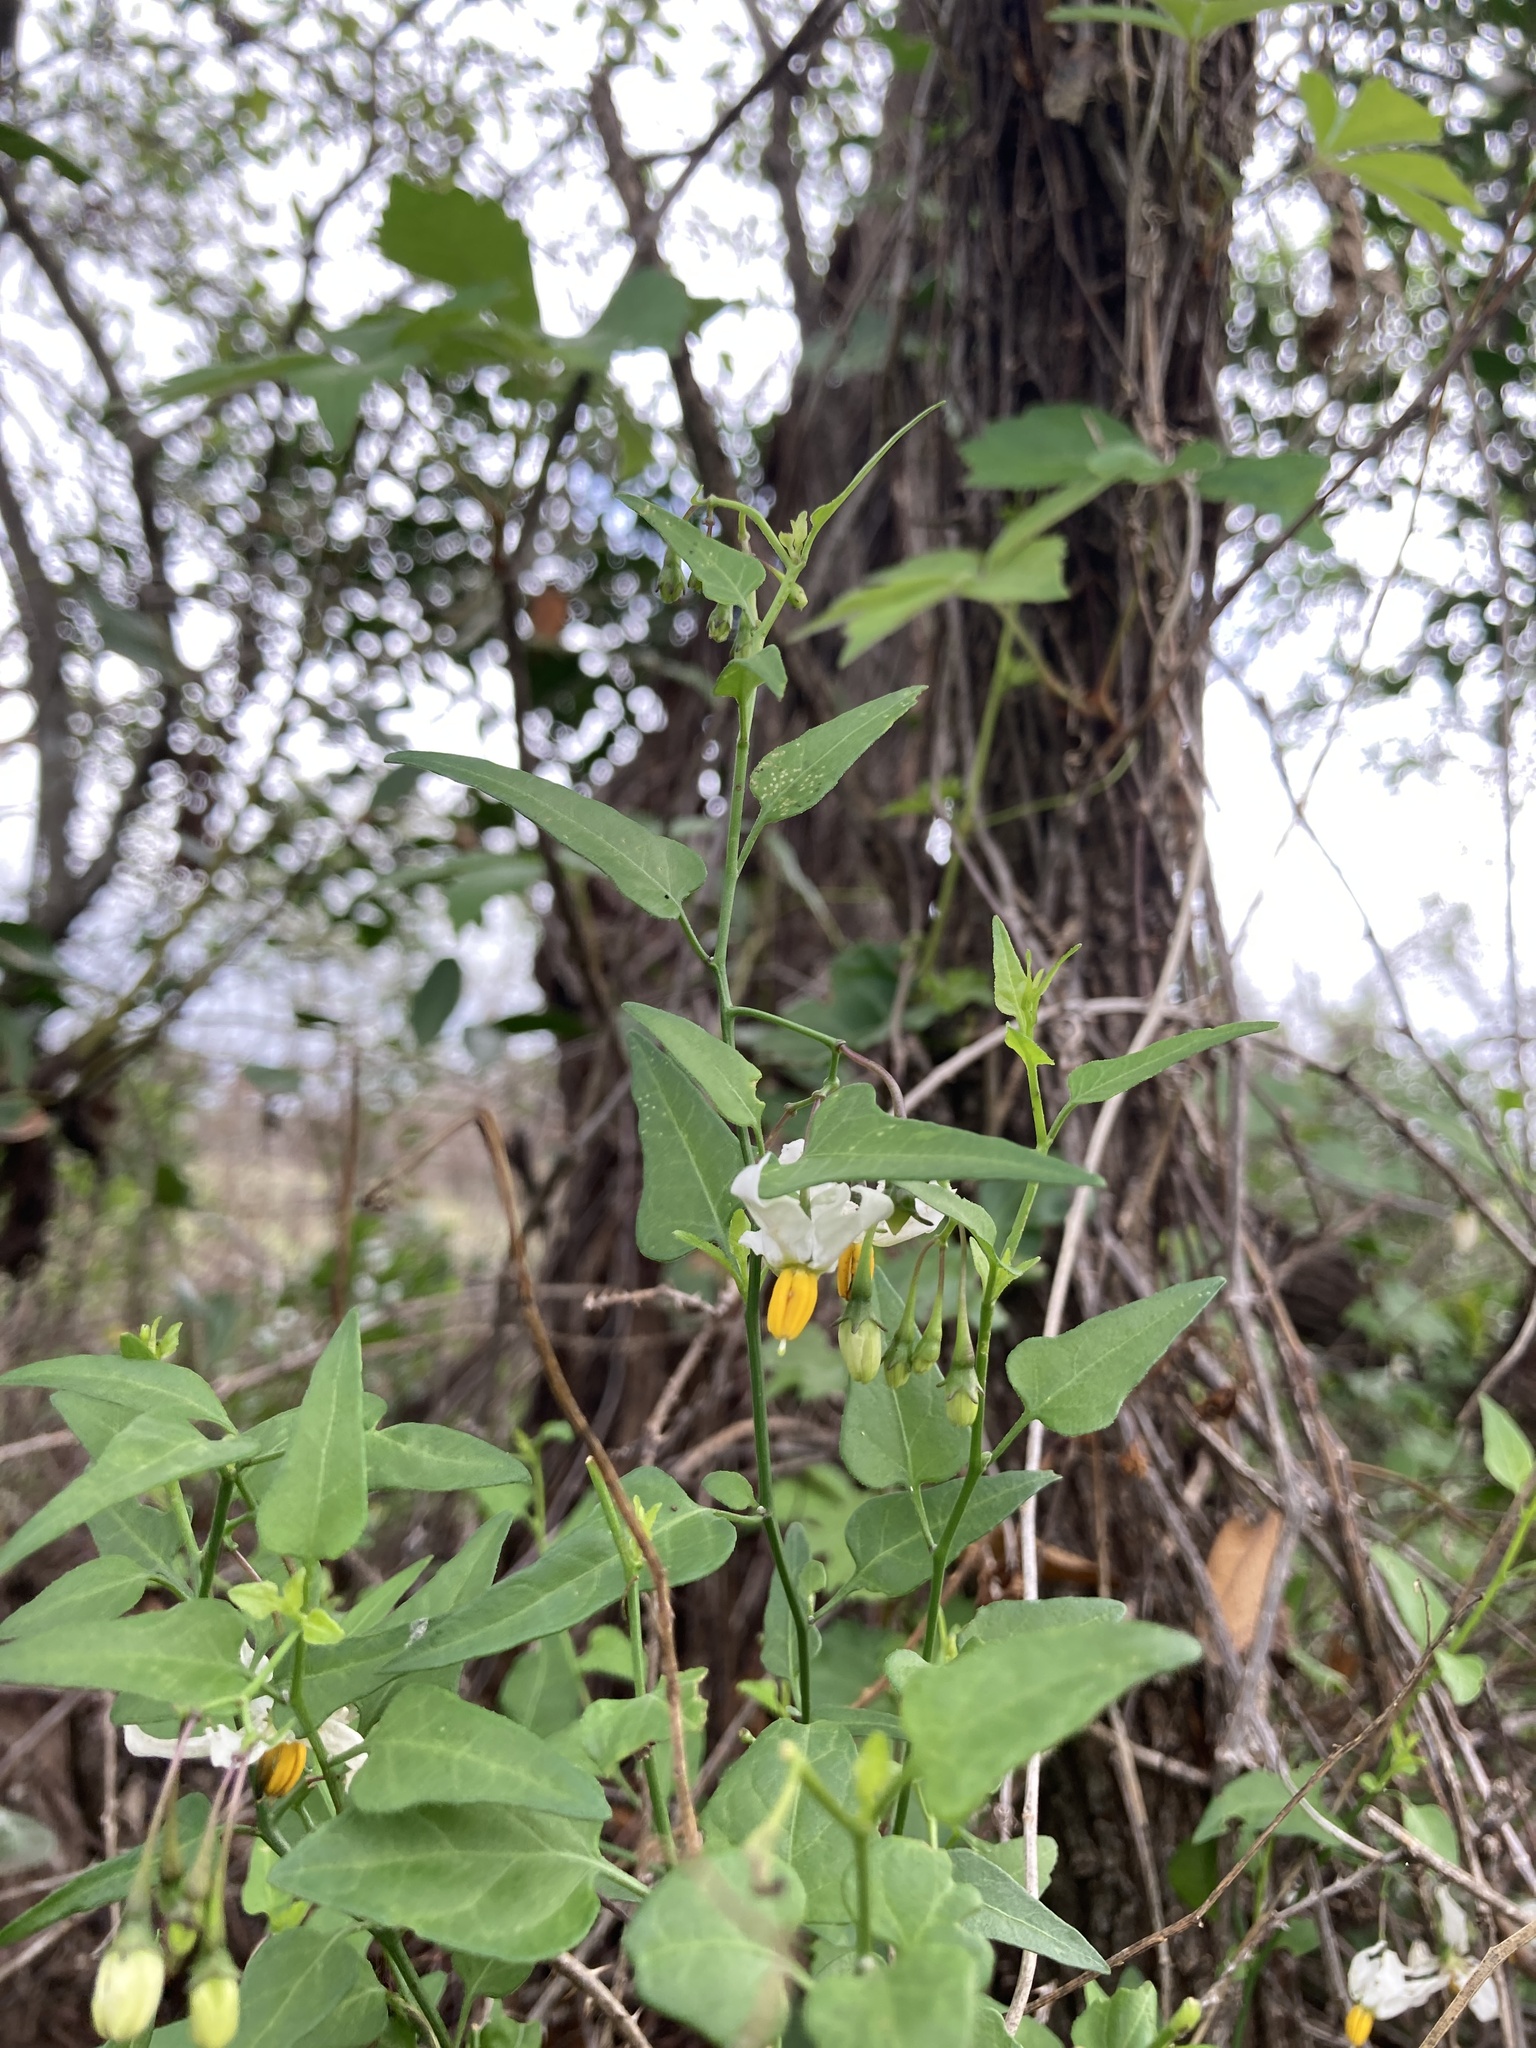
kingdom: Plantae
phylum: Tracheophyta
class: Magnoliopsida
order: Solanales
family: Solanaceae
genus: Solanum
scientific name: Solanum triquetrum
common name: Texas nightshade
